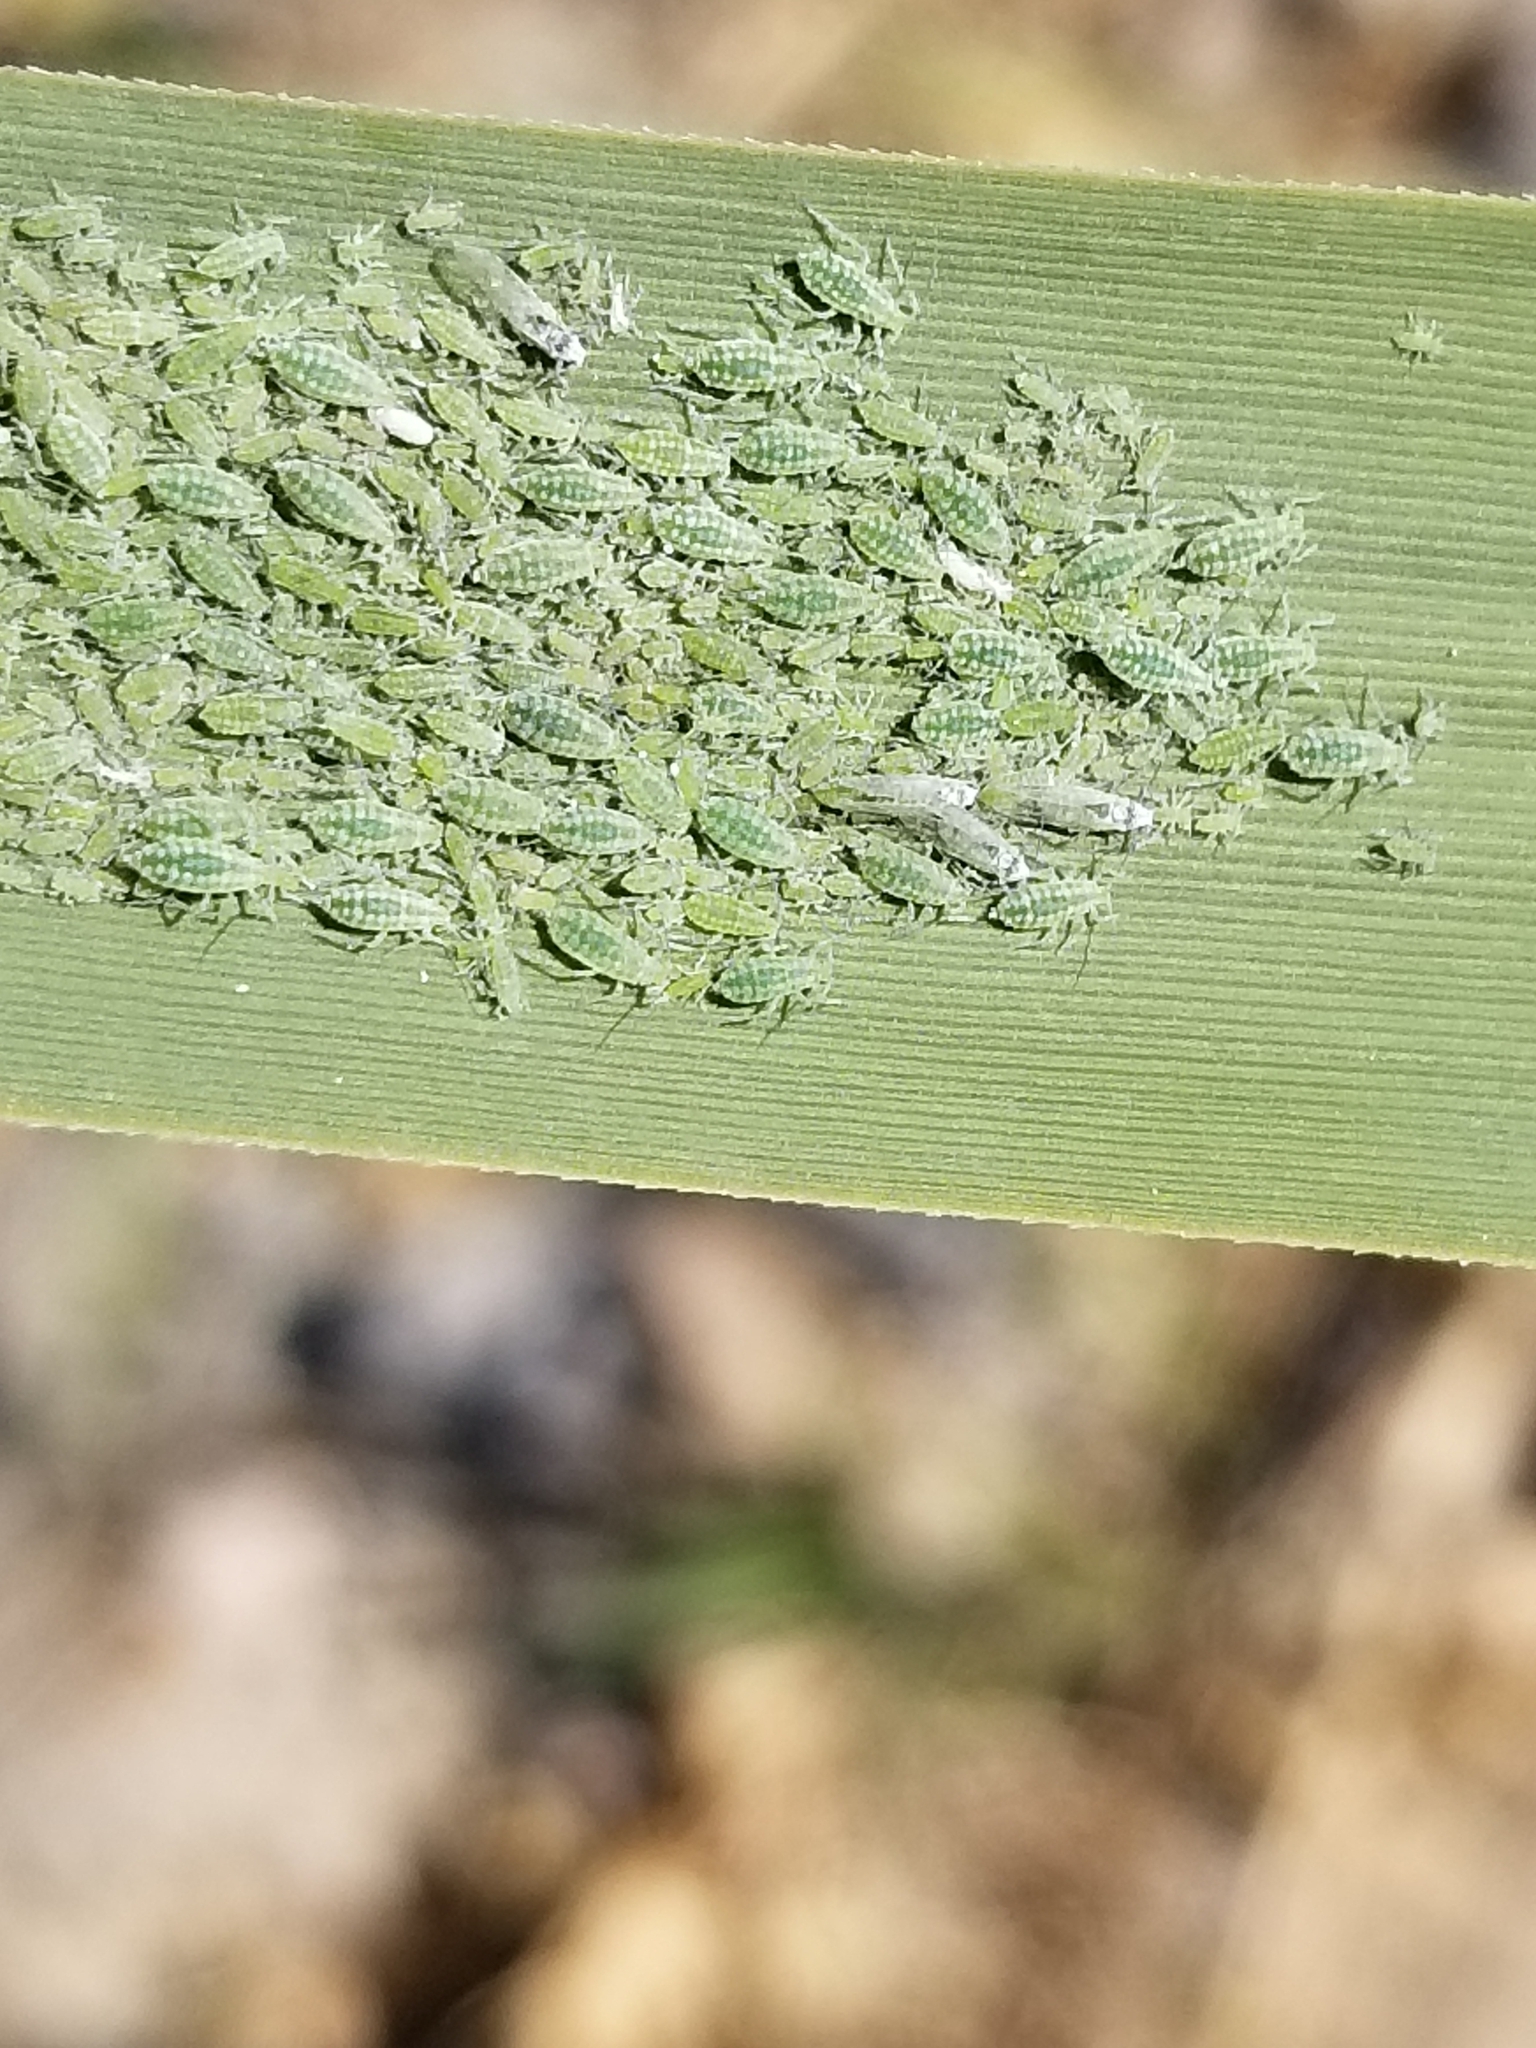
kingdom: Animalia
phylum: Arthropoda
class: Insecta
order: Hemiptera
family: Aphididae
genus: Hyalopterus
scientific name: Hyalopterus pruni
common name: Mealy plum aphid
